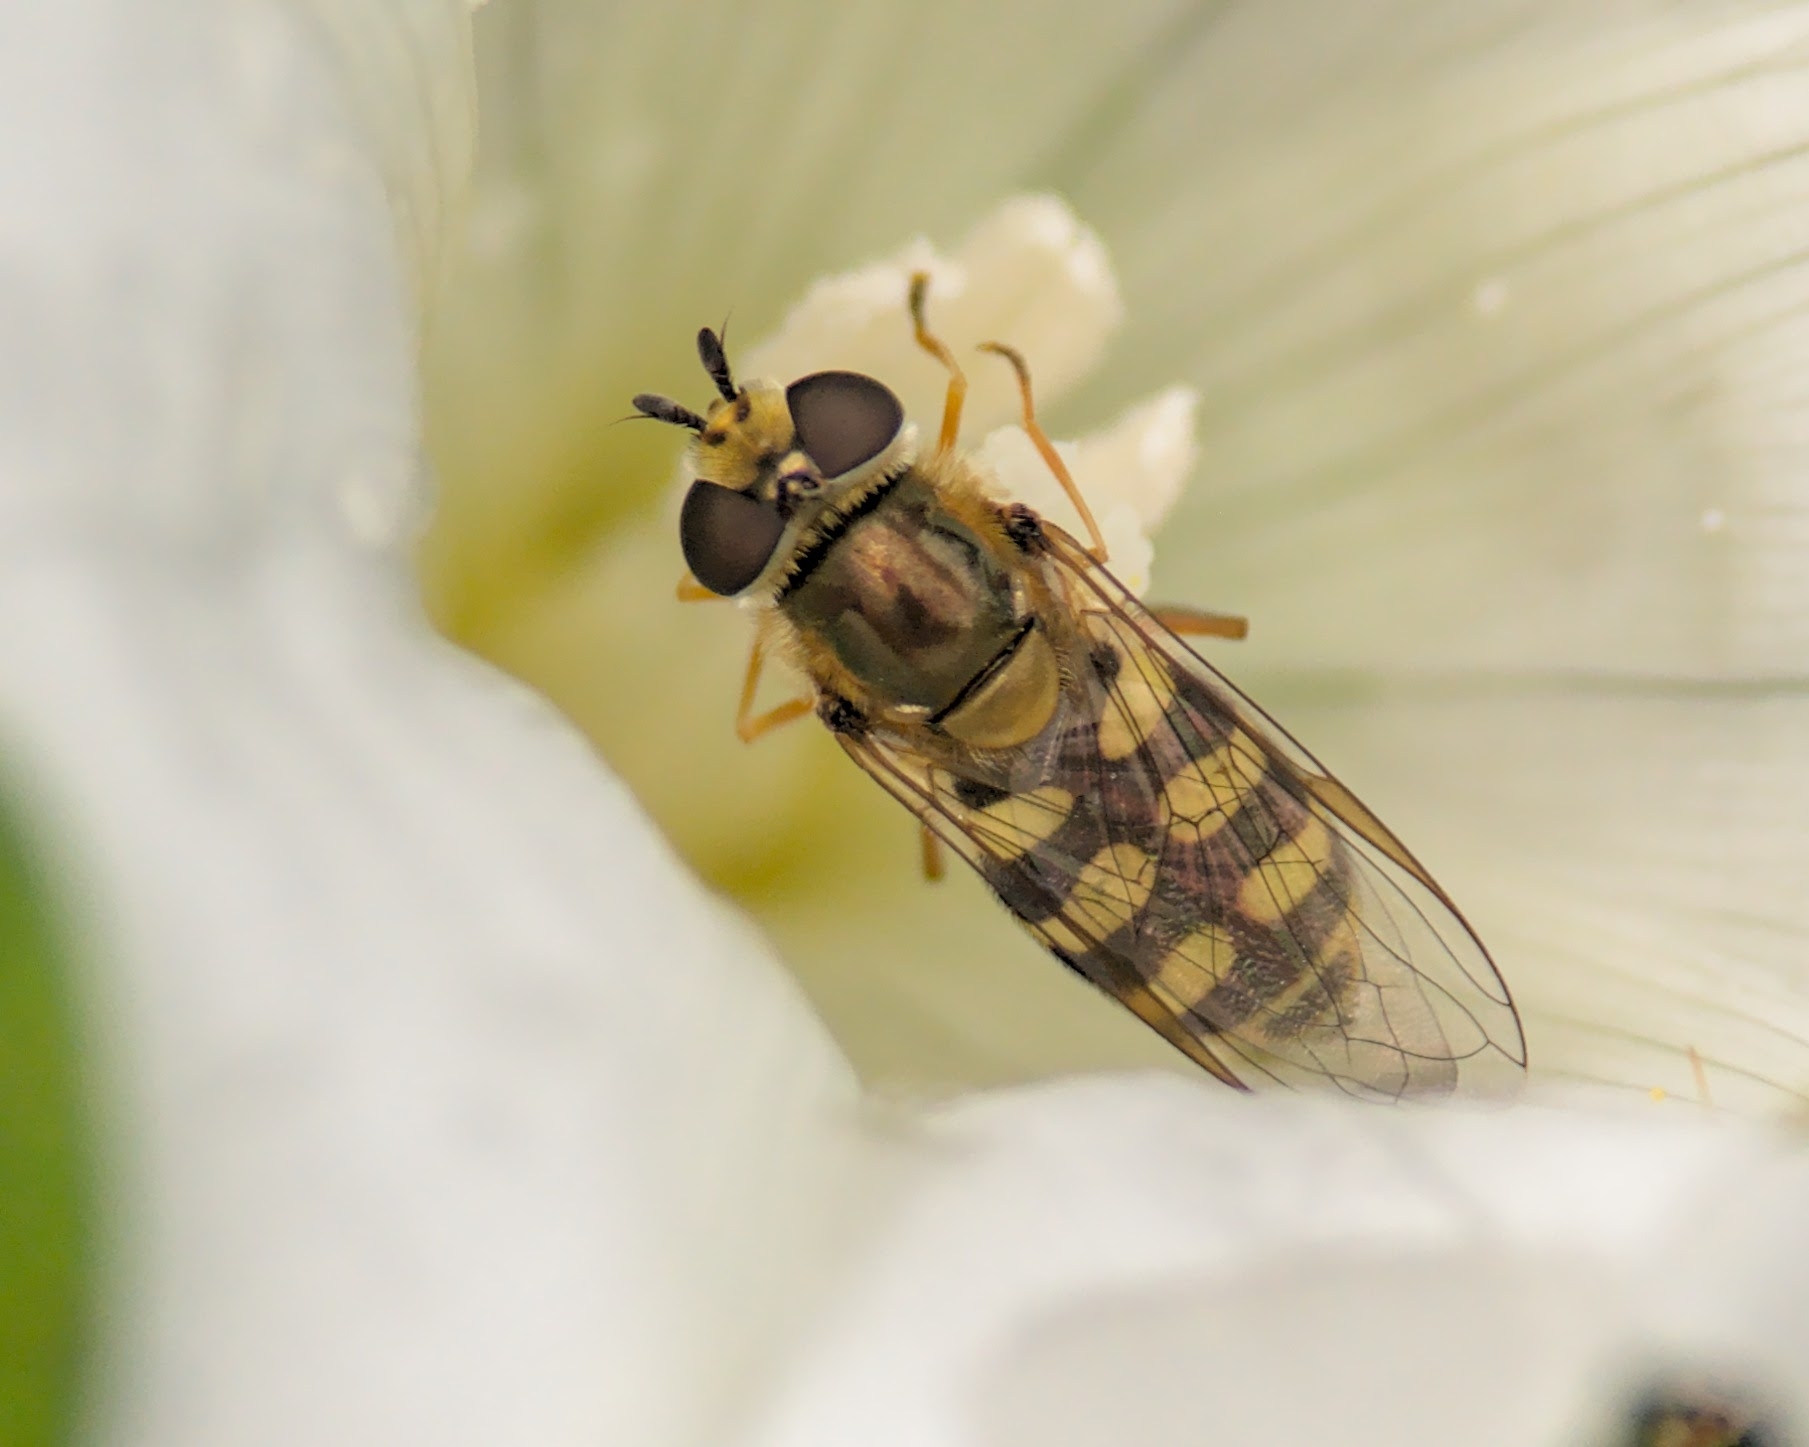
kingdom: Animalia
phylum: Arthropoda
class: Insecta
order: Diptera
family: Syrphidae
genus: Eupeodes
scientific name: Eupeodes corollae
